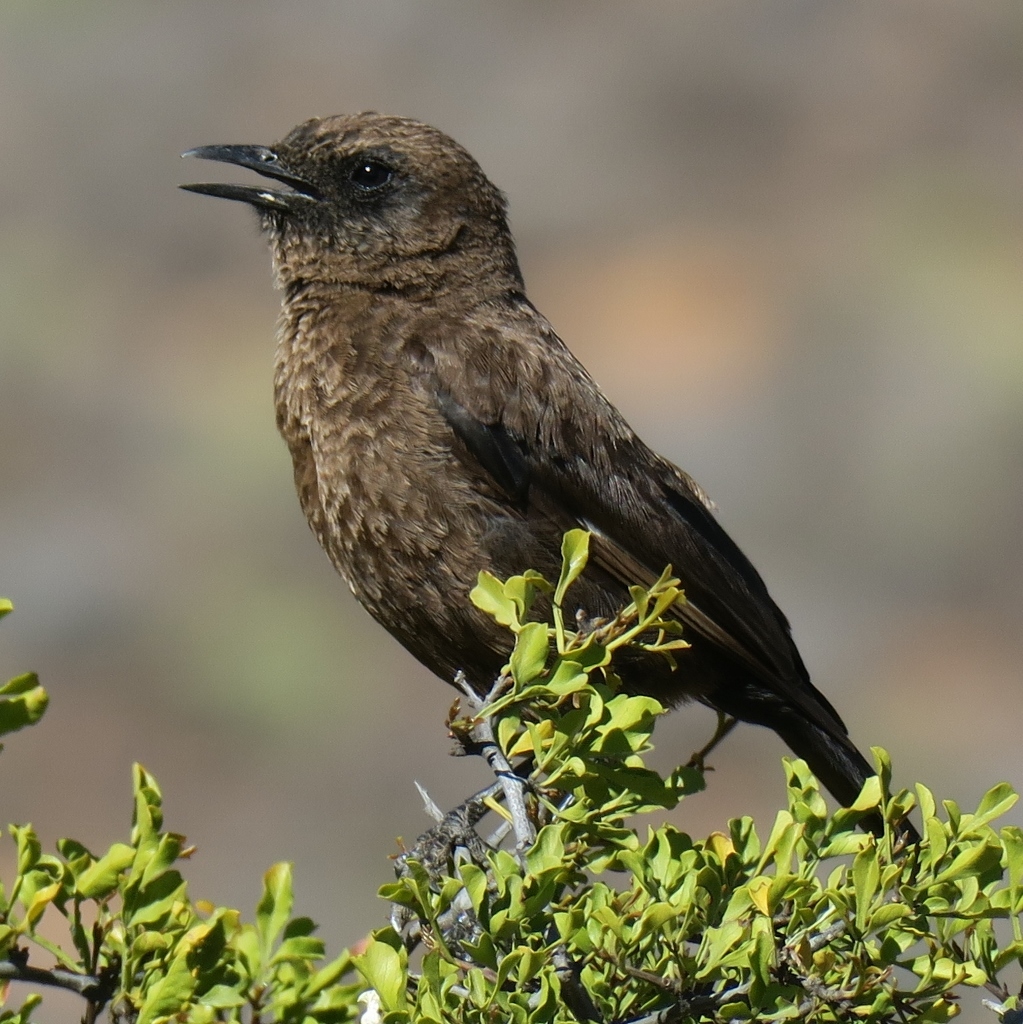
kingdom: Animalia
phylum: Chordata
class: Aves
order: Passeriformes
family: Muscicapidae
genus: Myrmecocichla
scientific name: Myrmecocichla formicivora
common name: Ant-eating chat
